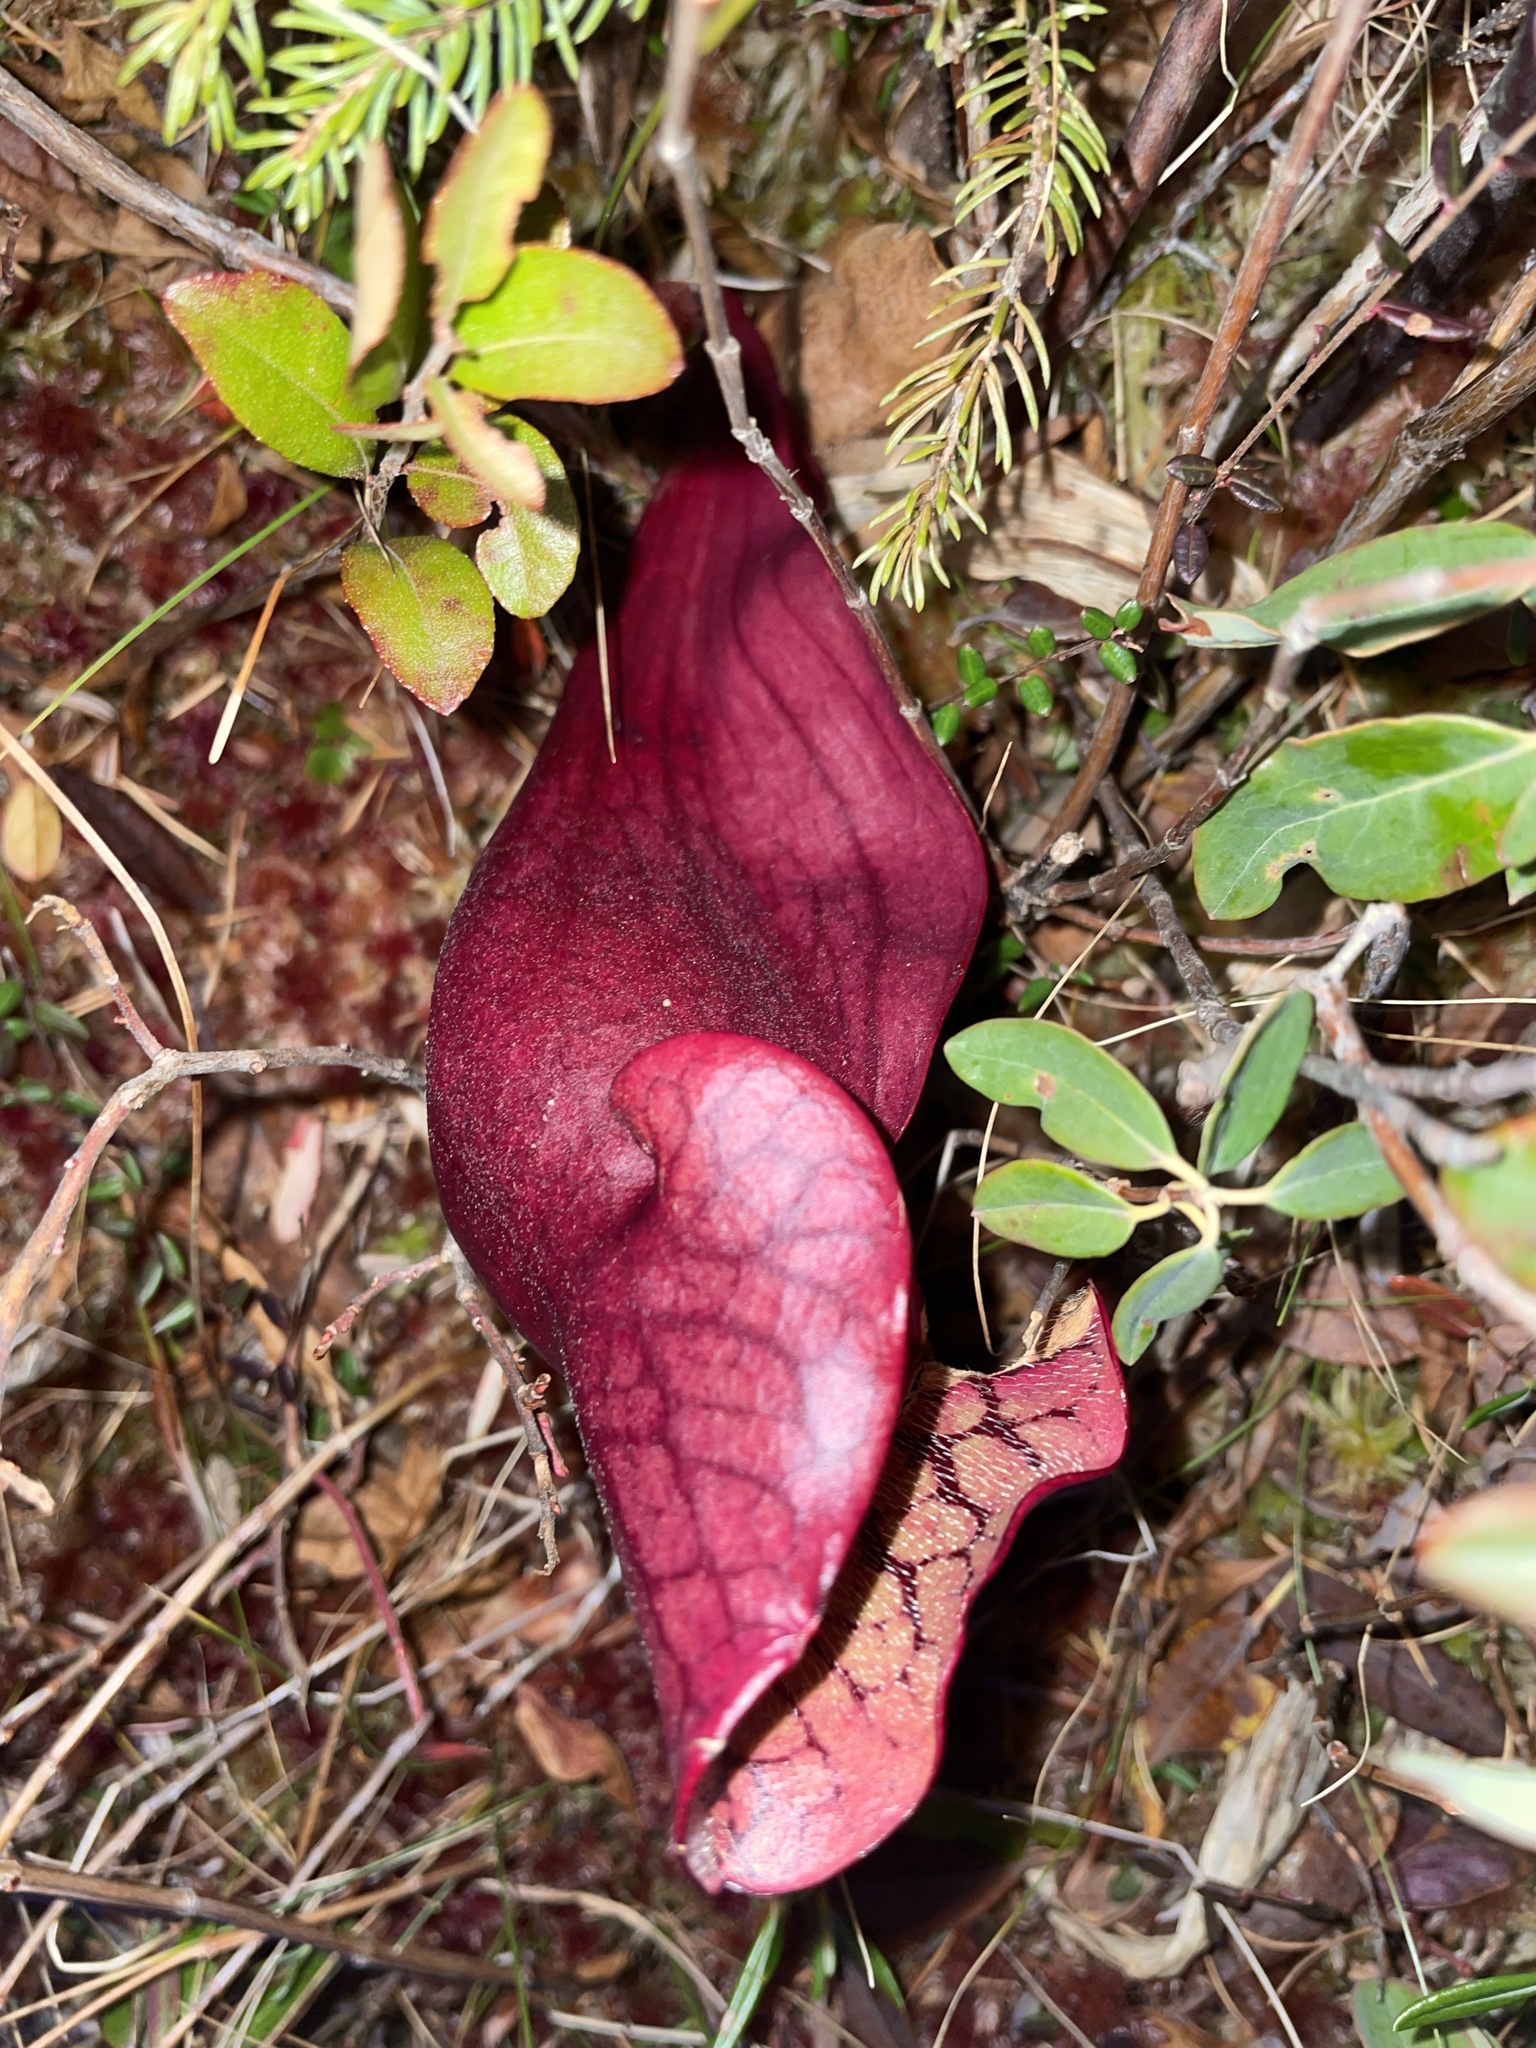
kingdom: Plantae
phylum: Tracheophyta
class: Magnoliopsida
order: Ericales
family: Sarraceniaceae
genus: Sarracenia
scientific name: Sarracenia purpurea
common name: Pitcherplant
